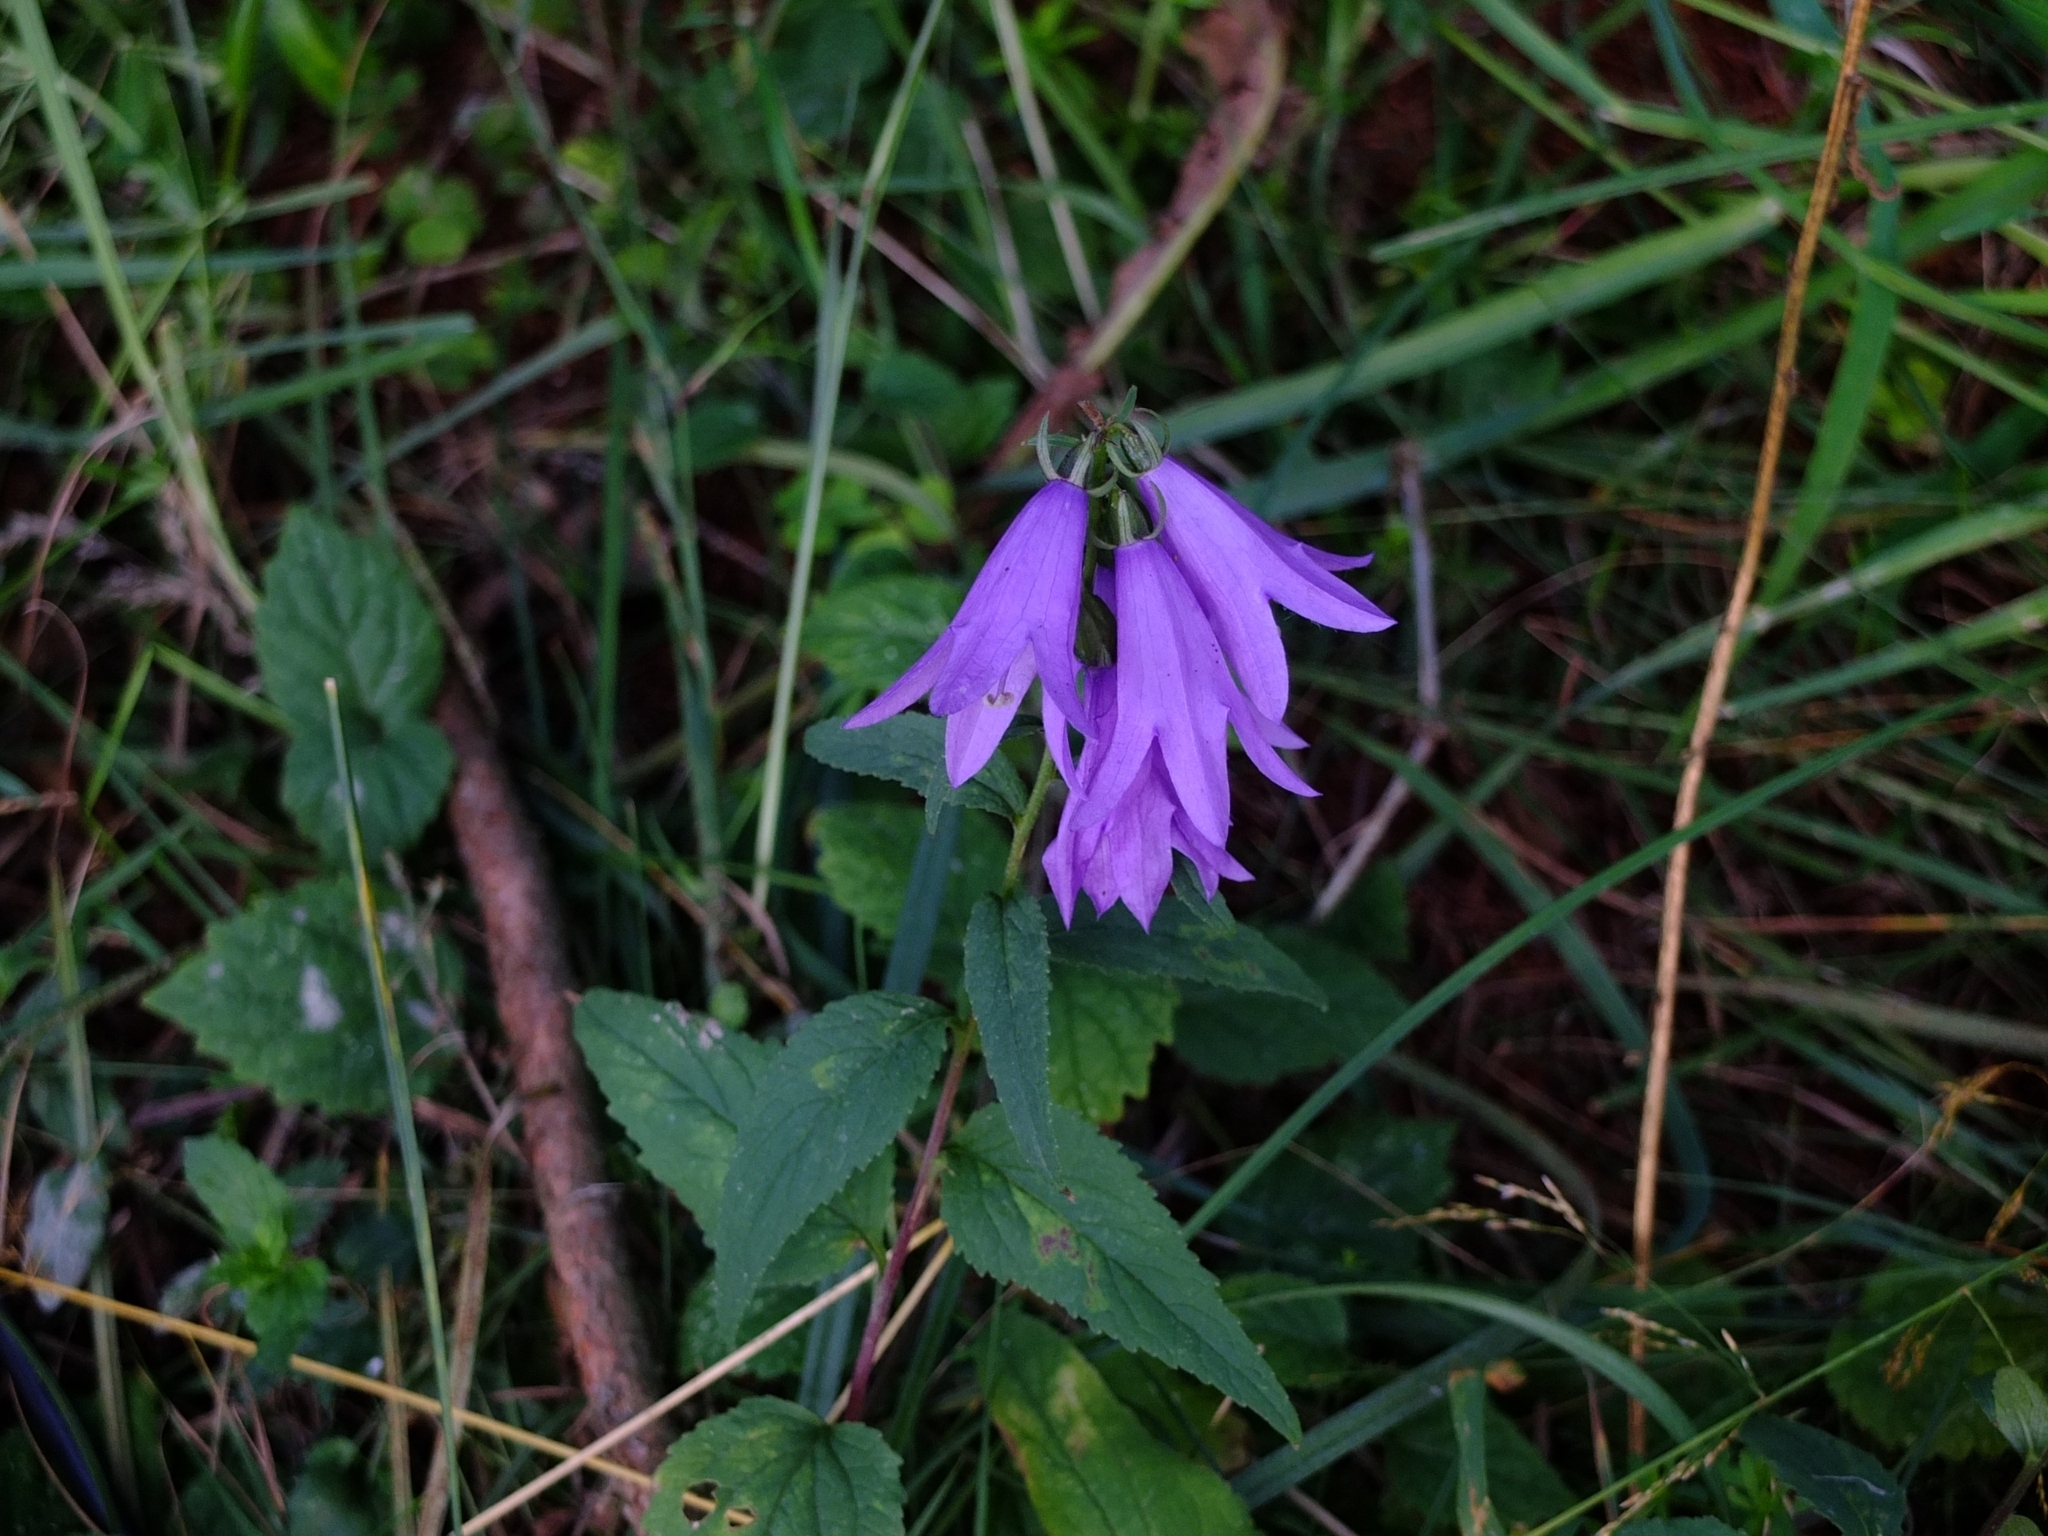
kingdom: Plantae
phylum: Tracheophyta
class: Magnoliopsida
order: Asterales
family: Campanulaceae
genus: Campanula
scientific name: Campanula rapunculoides
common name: Creeping bellflower
